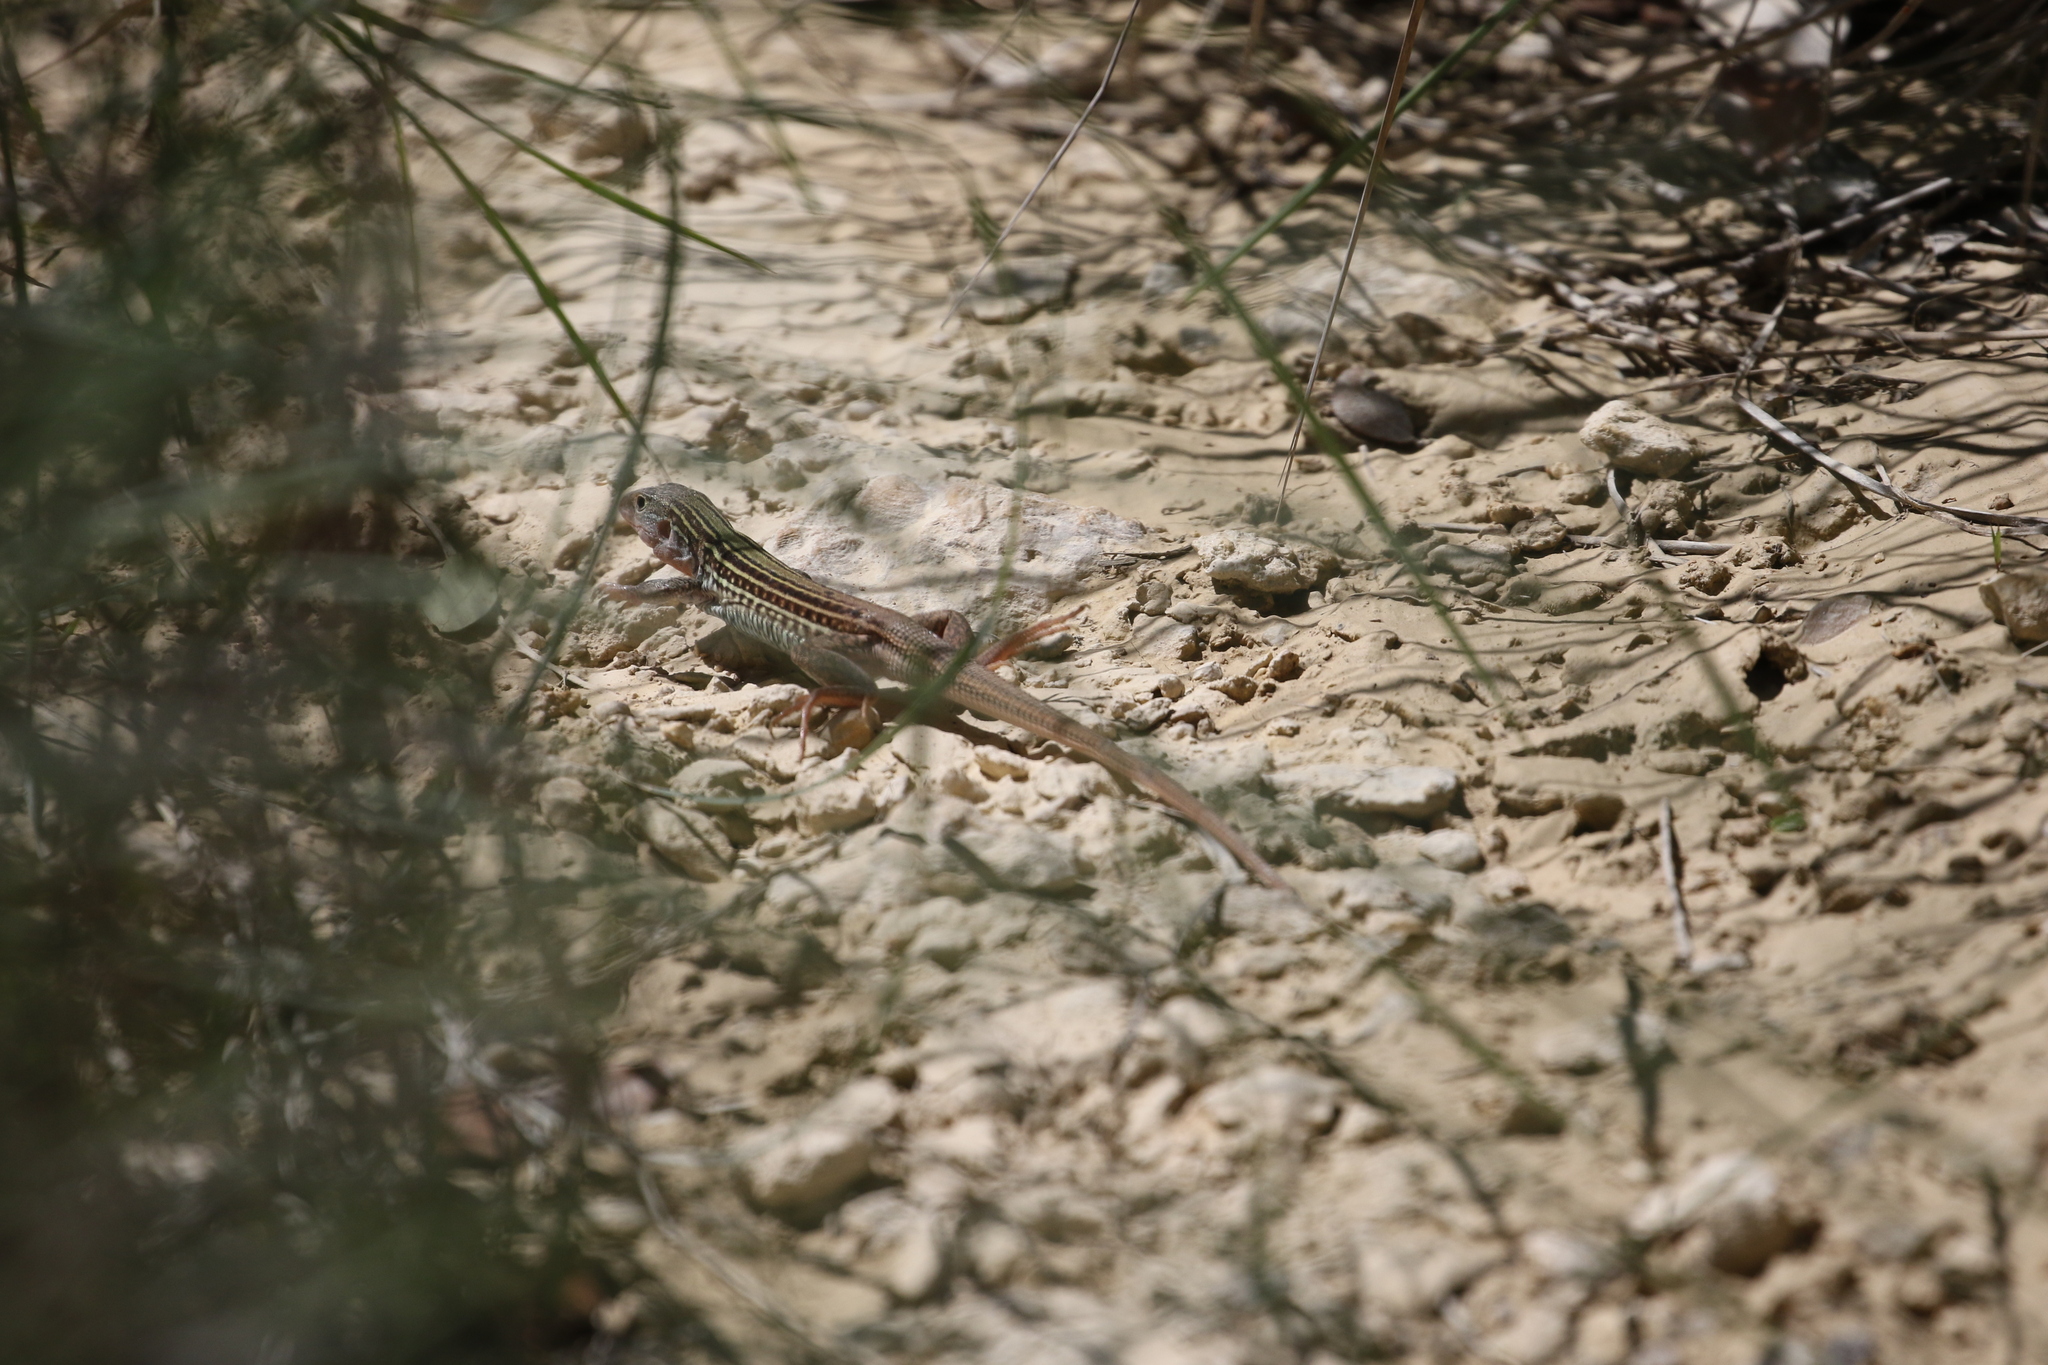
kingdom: Animalia
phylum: Chordata
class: Squamata
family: Teiidae
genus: Aspidoscelis
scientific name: Aspidoscelis gularis
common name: Eastern spotted whiptail
